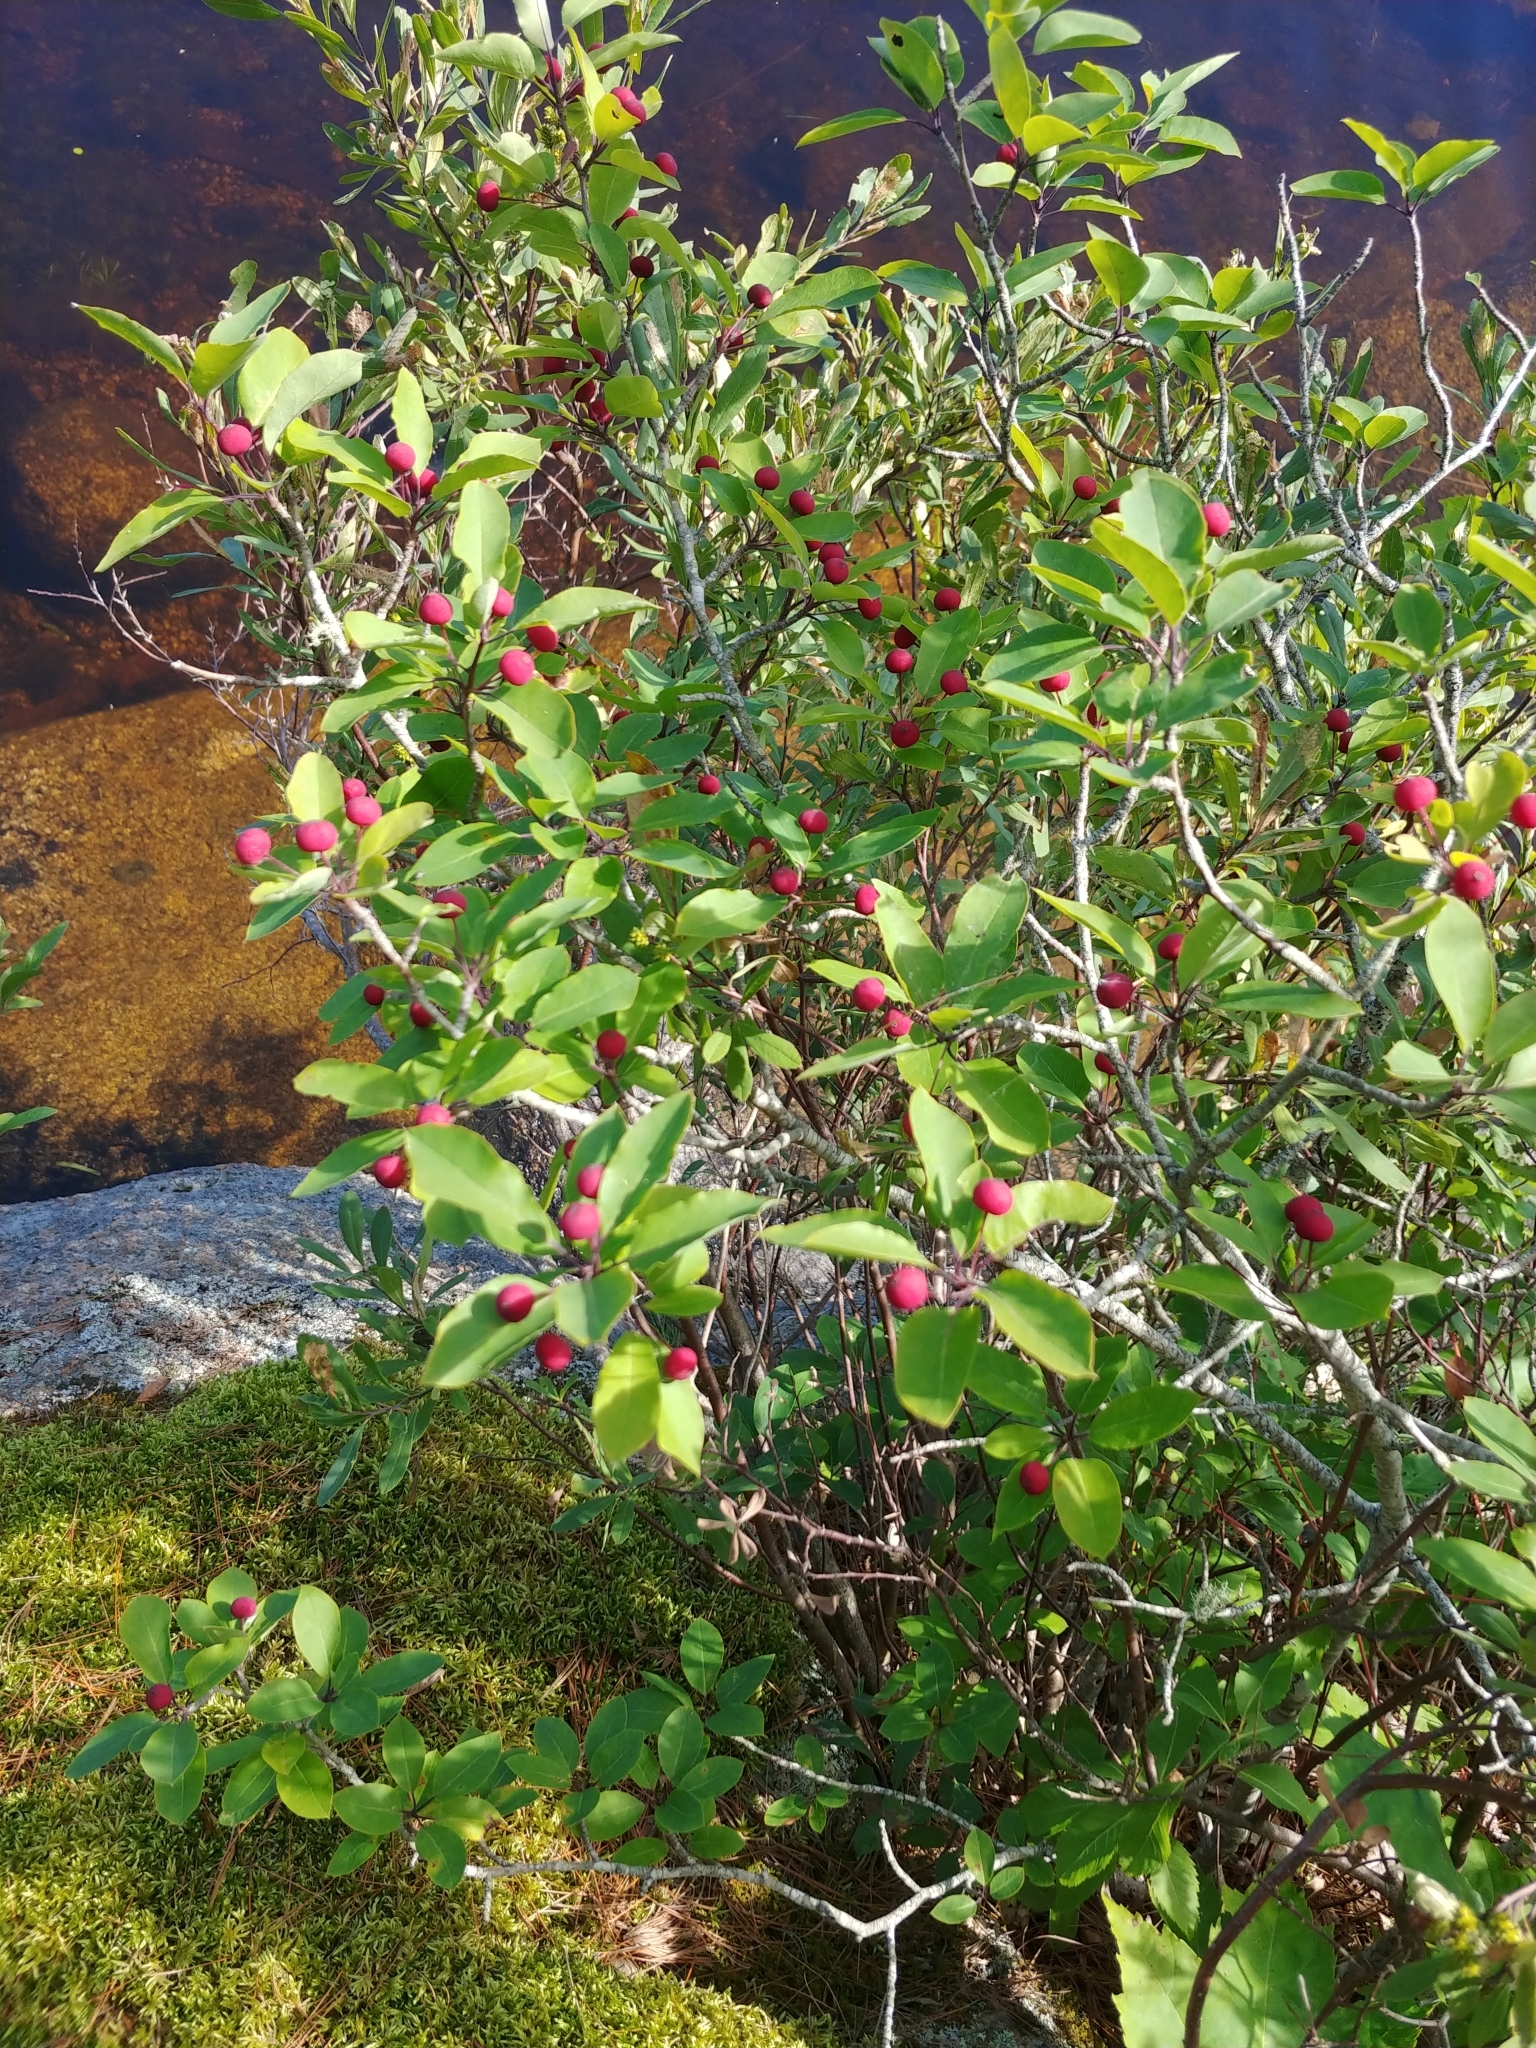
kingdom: Plantae
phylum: Tracheophyta
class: Magnoliopsida
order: Aquifoliales
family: Aquifoliaceae
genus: Ilex
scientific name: Ilex mucronata
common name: Catberry
